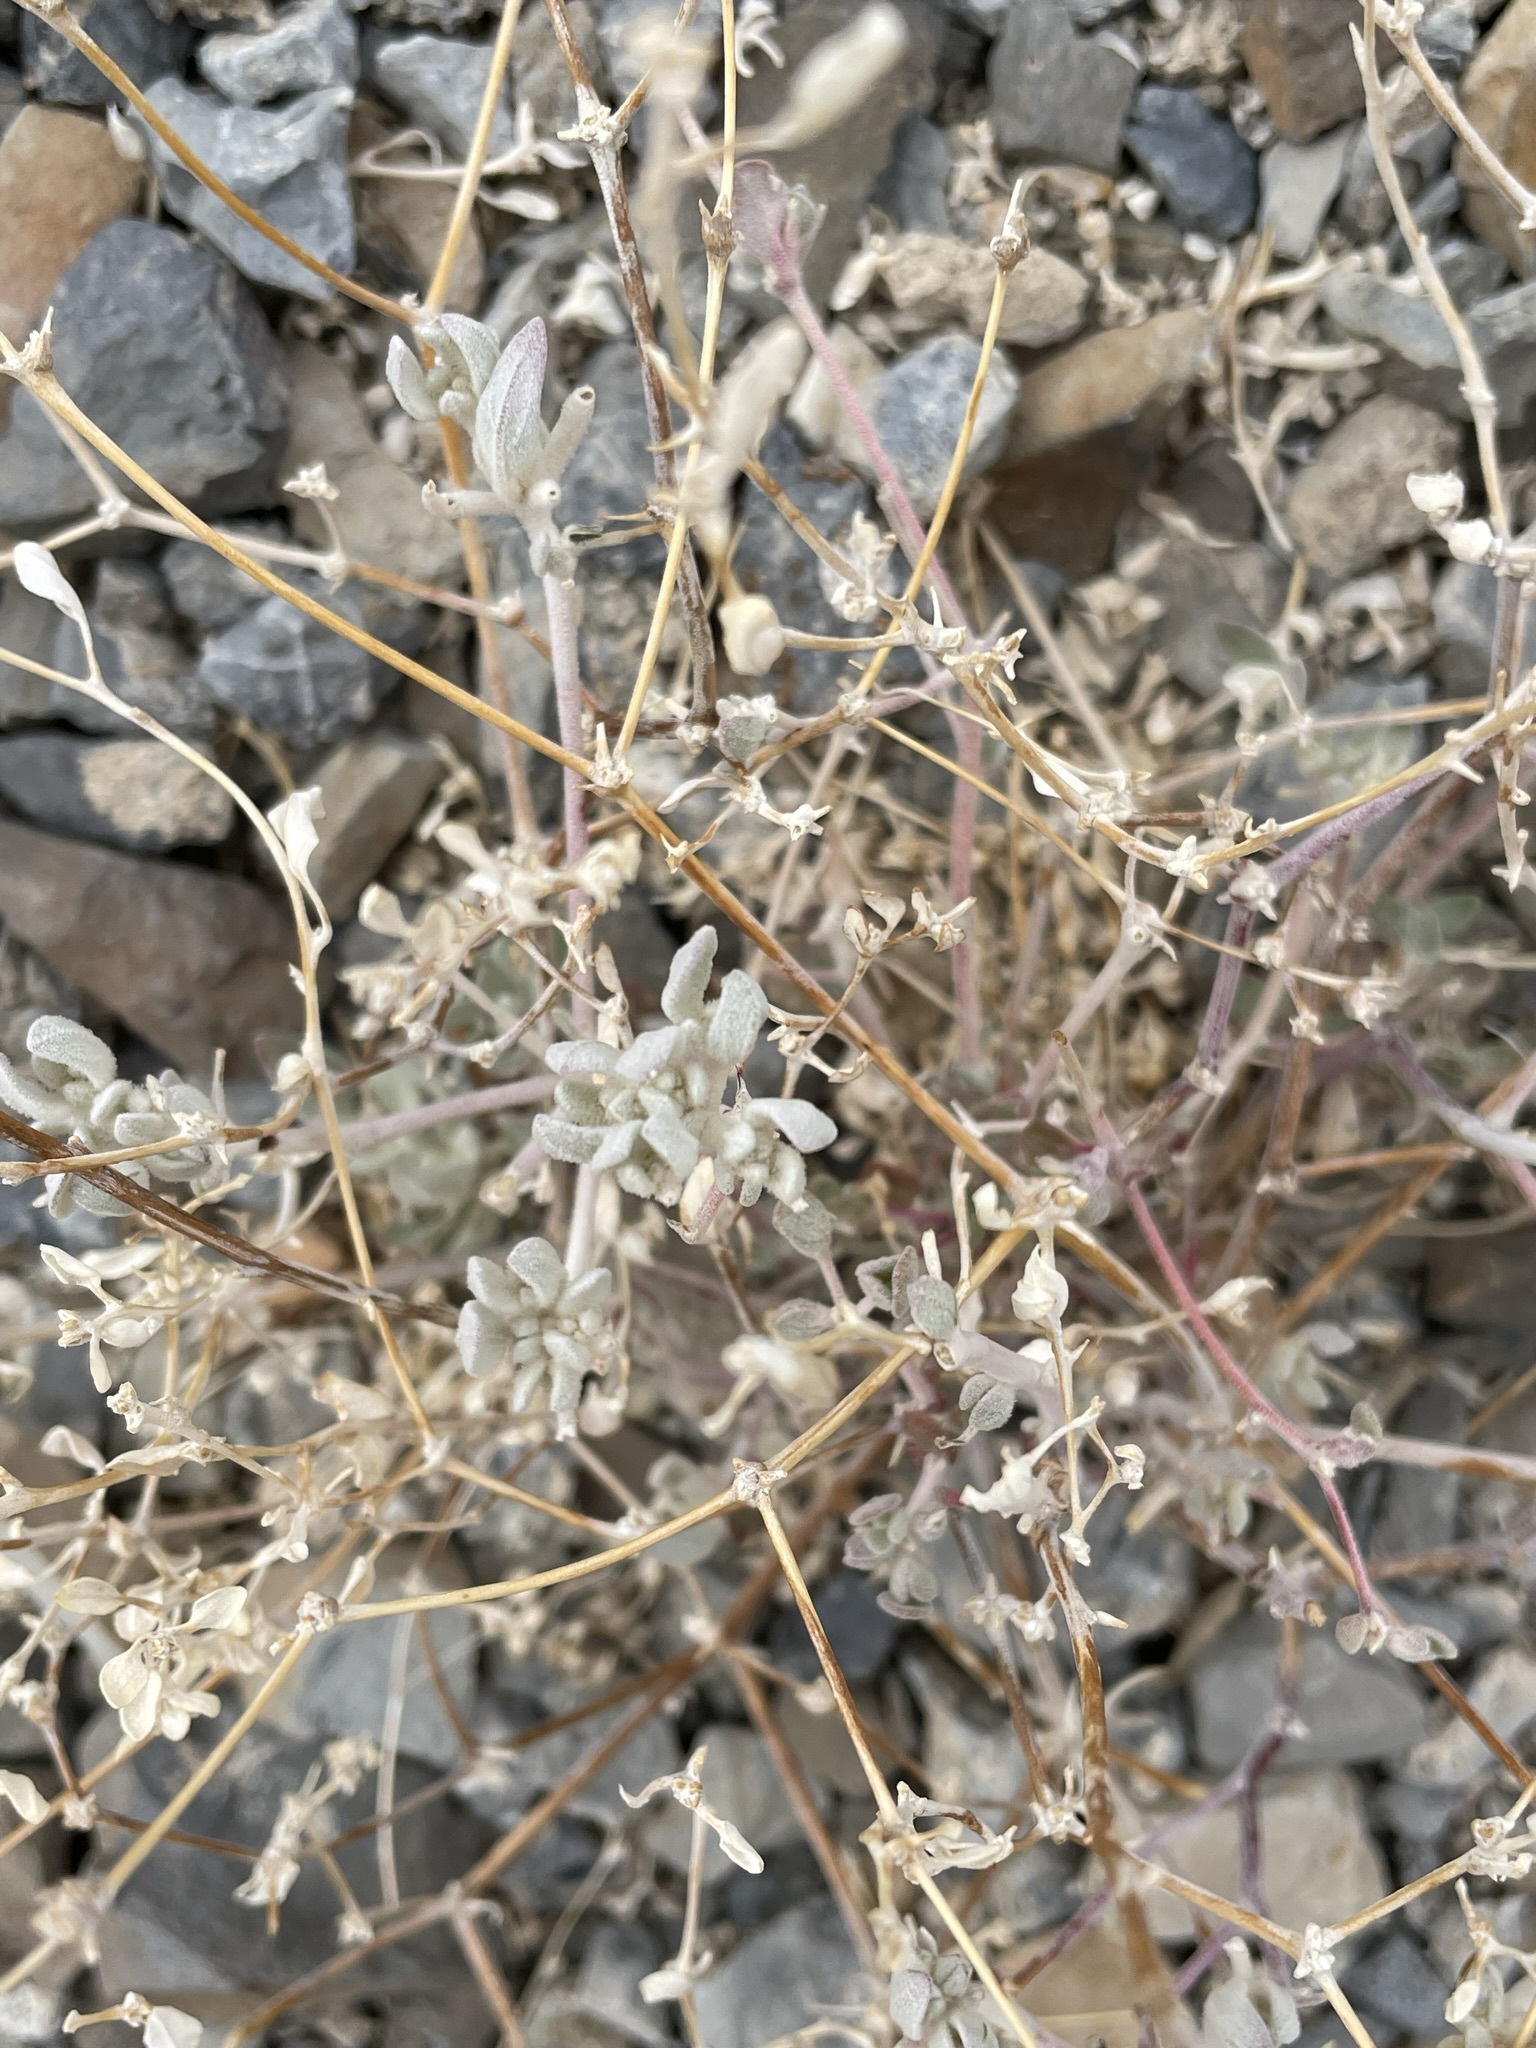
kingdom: Plantae
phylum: Tracheophyta
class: Magnoliopsida
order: Caryophyllales
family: Amaranthaceae
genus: Tidestromia
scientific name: Tidestromia suffruticosa
